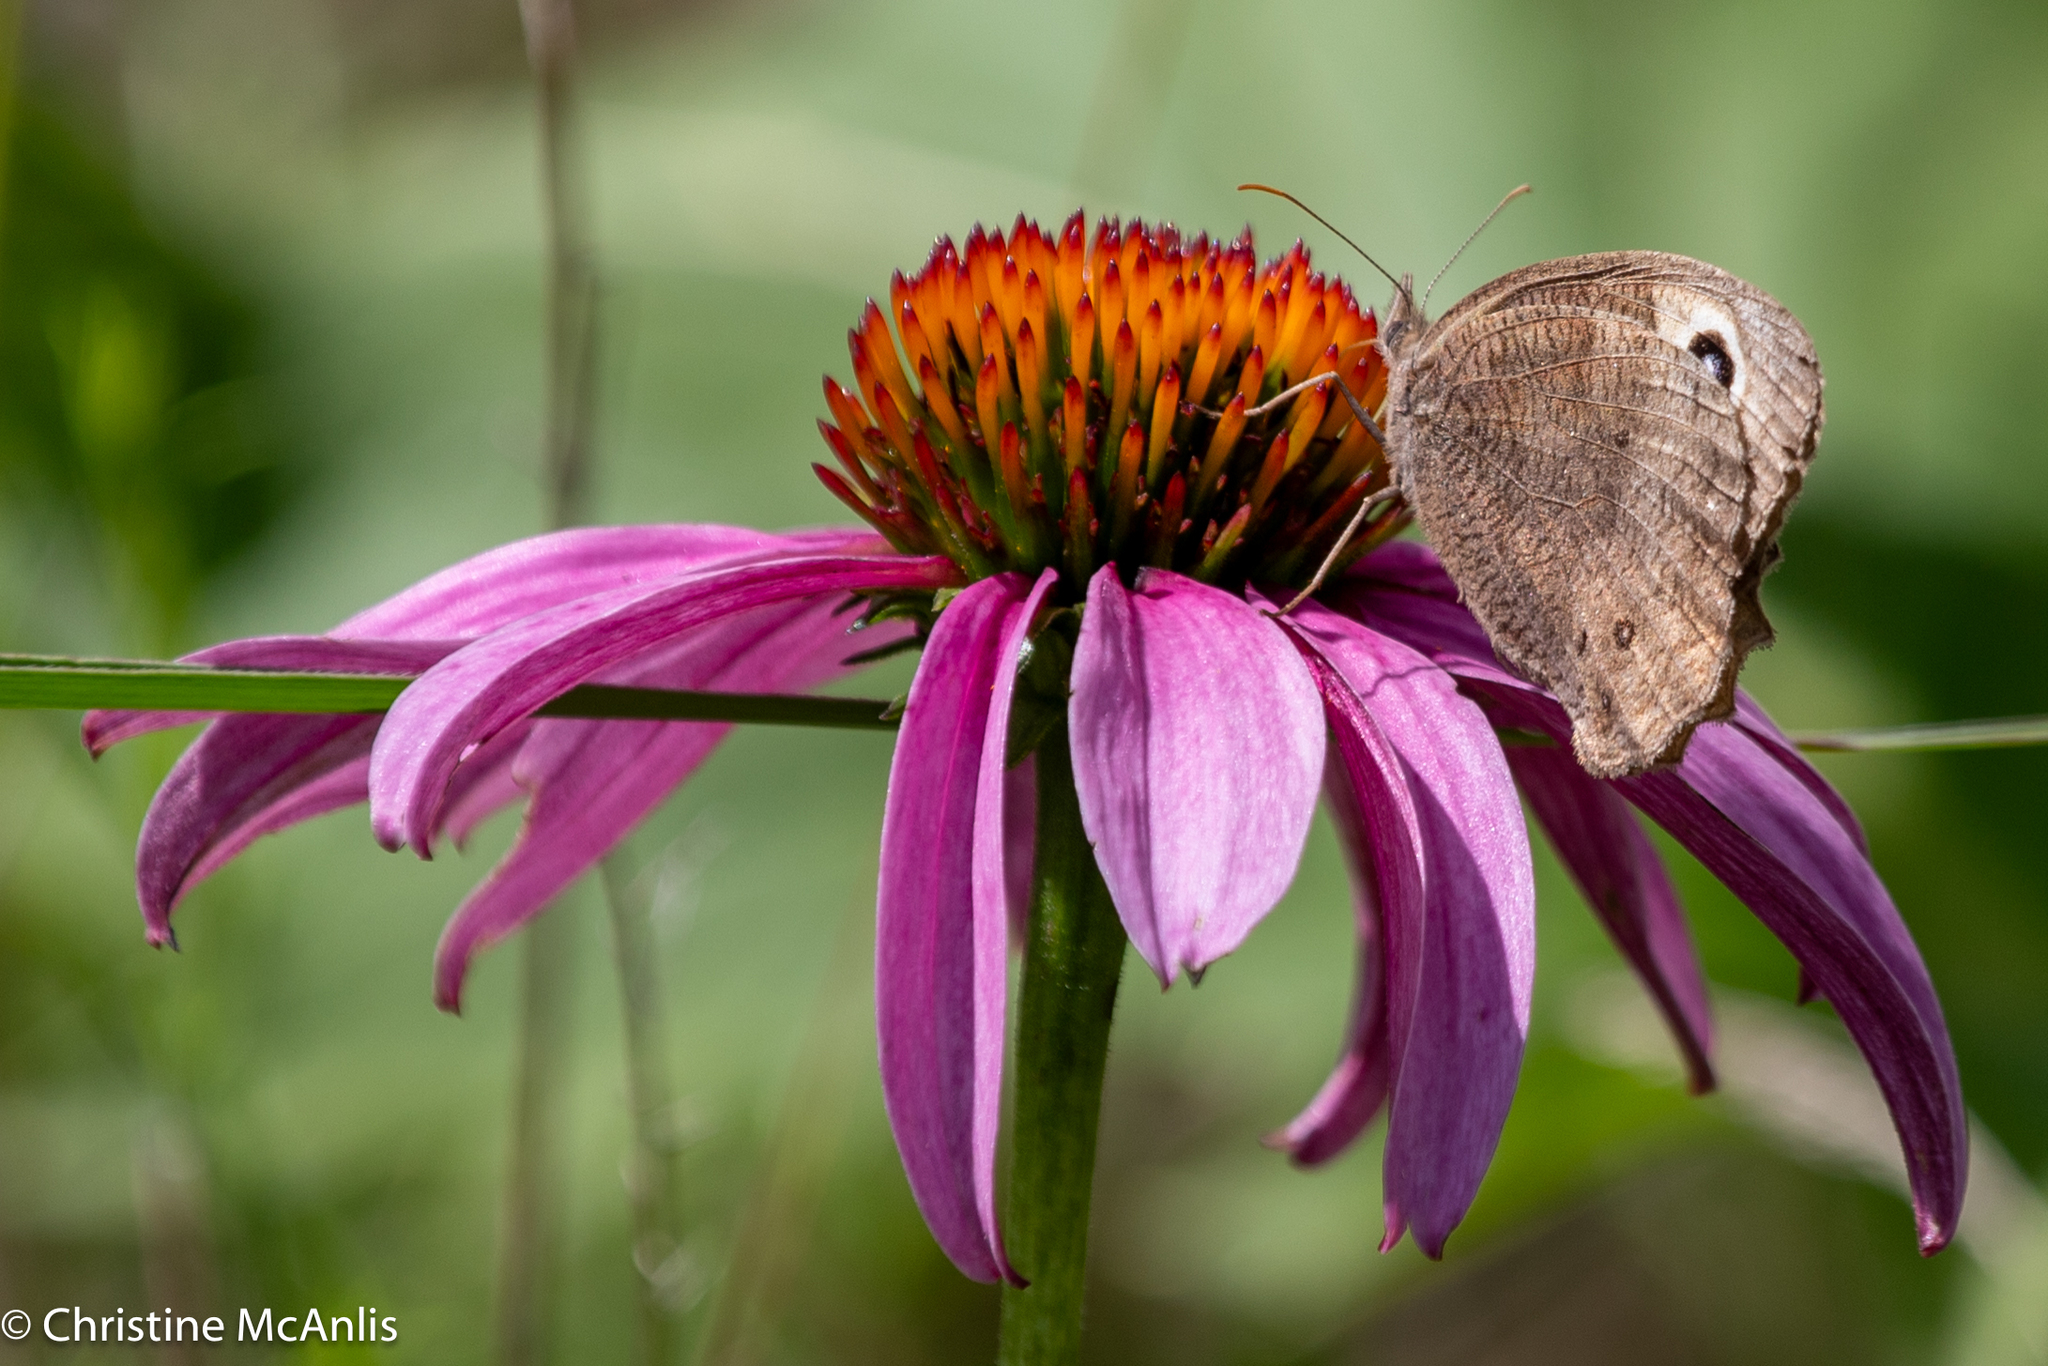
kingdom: Animalia
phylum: Arthropoda
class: Insecta
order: Lepidoptera
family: Nymphalidae
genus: Cercyonis
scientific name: Cercyonis pegala
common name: Common wood-nymph
